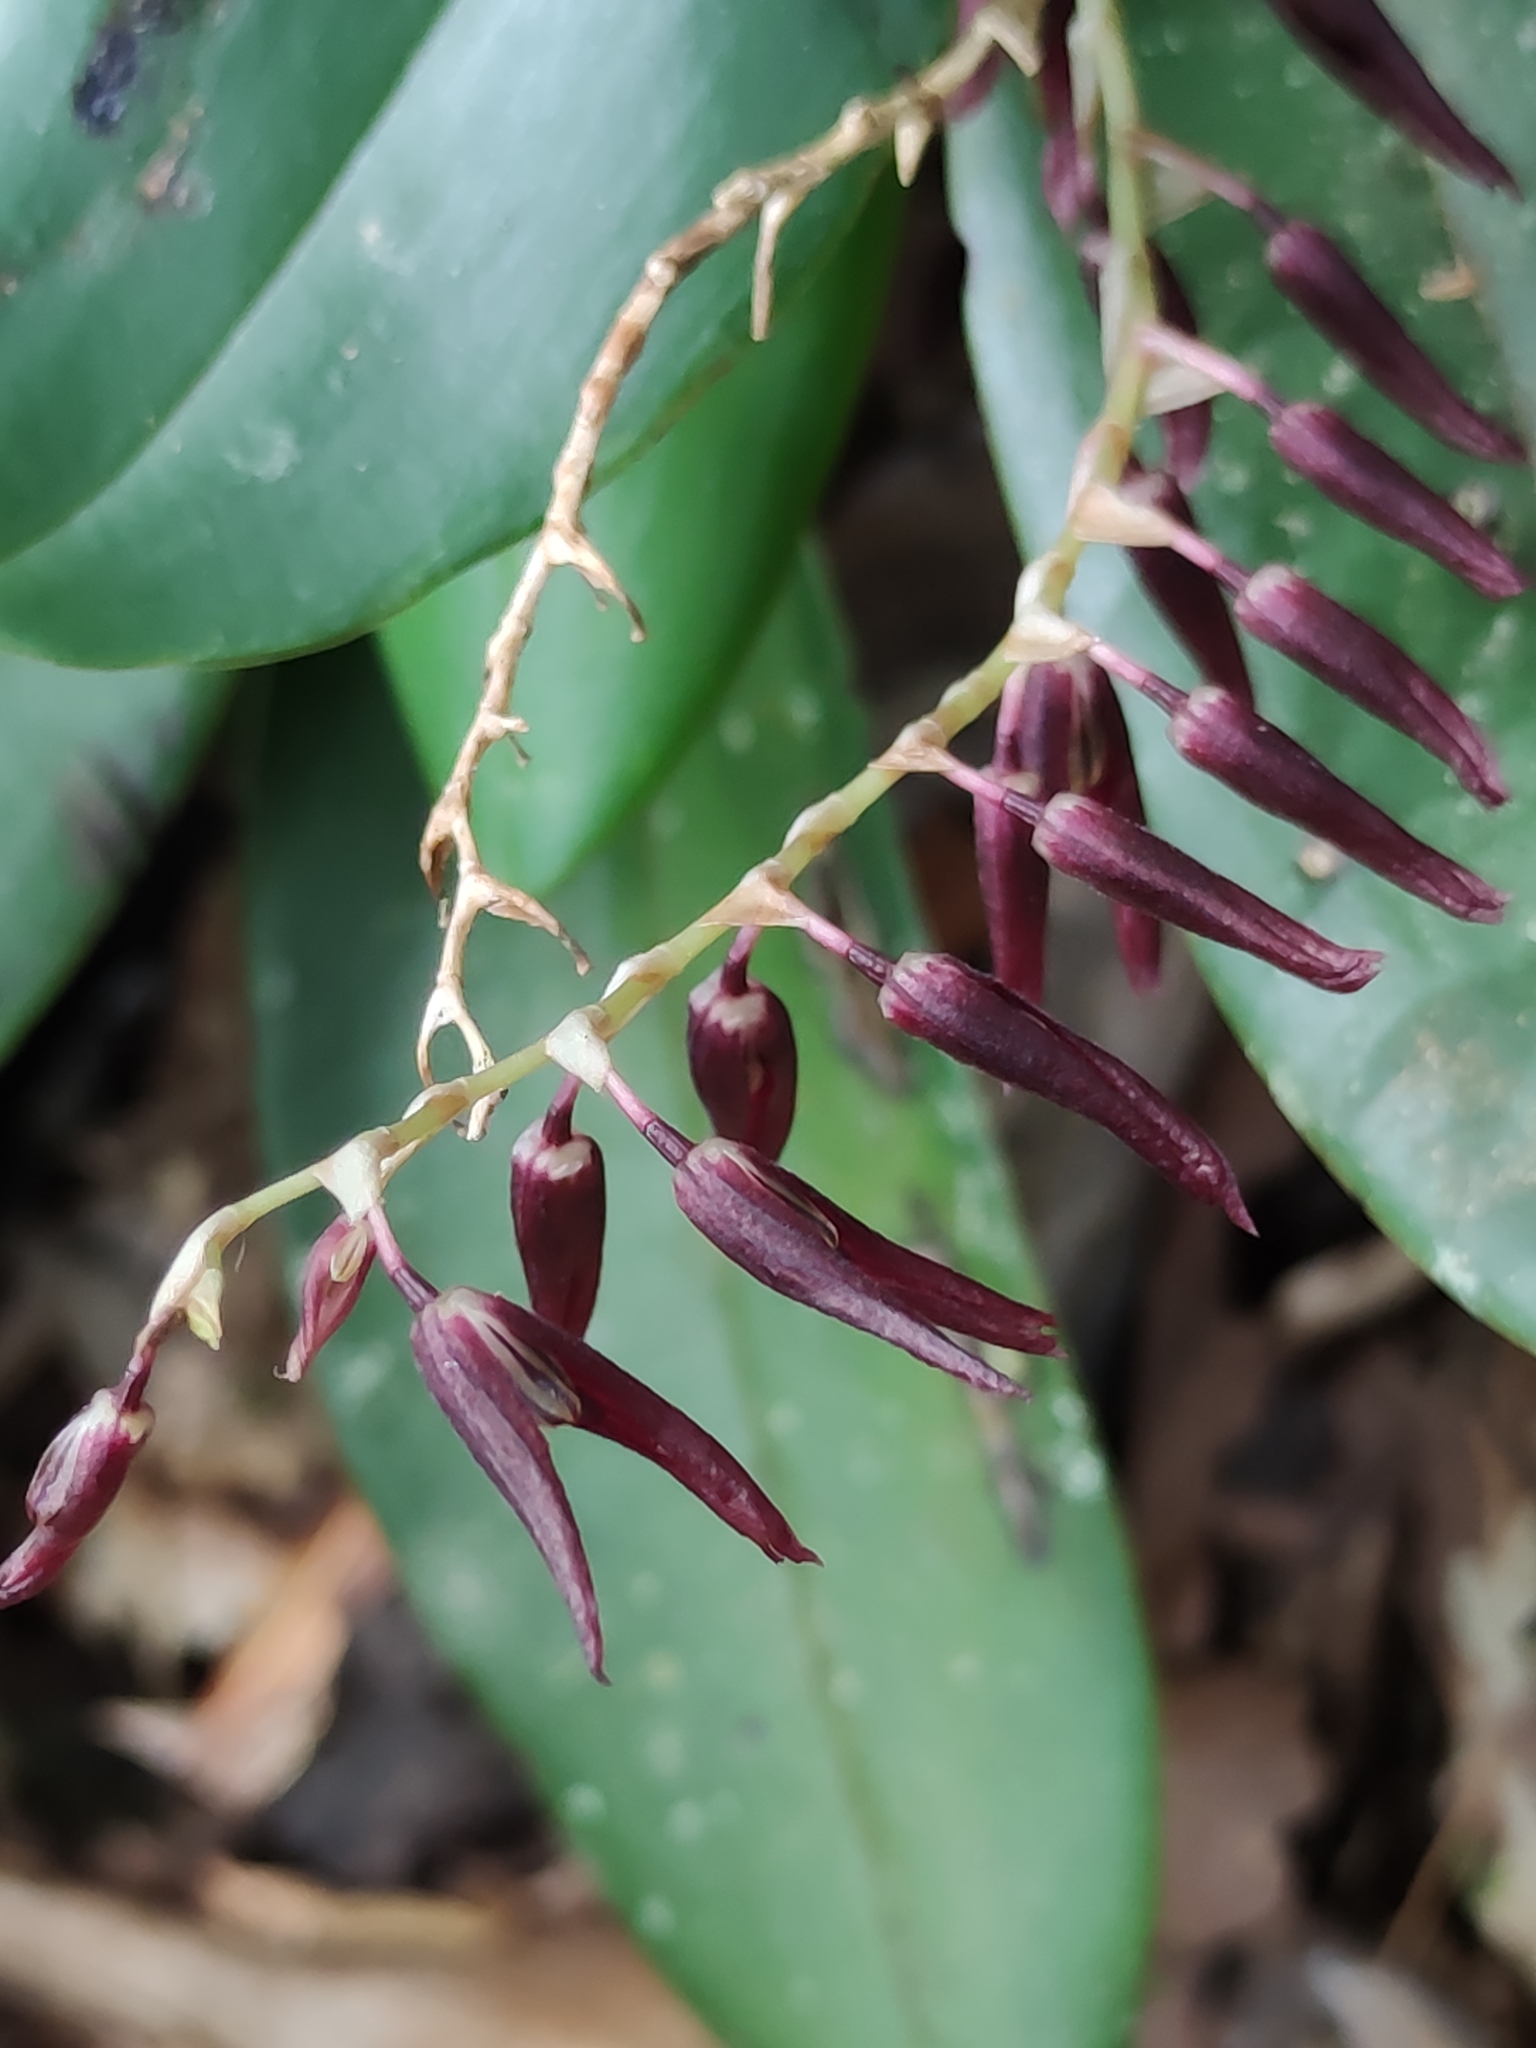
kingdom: Plantae
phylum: Tracheophyta
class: Liliopsida
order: Asparagales
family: Orchidaceae
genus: Stelis
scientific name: Stelis megachlamys
